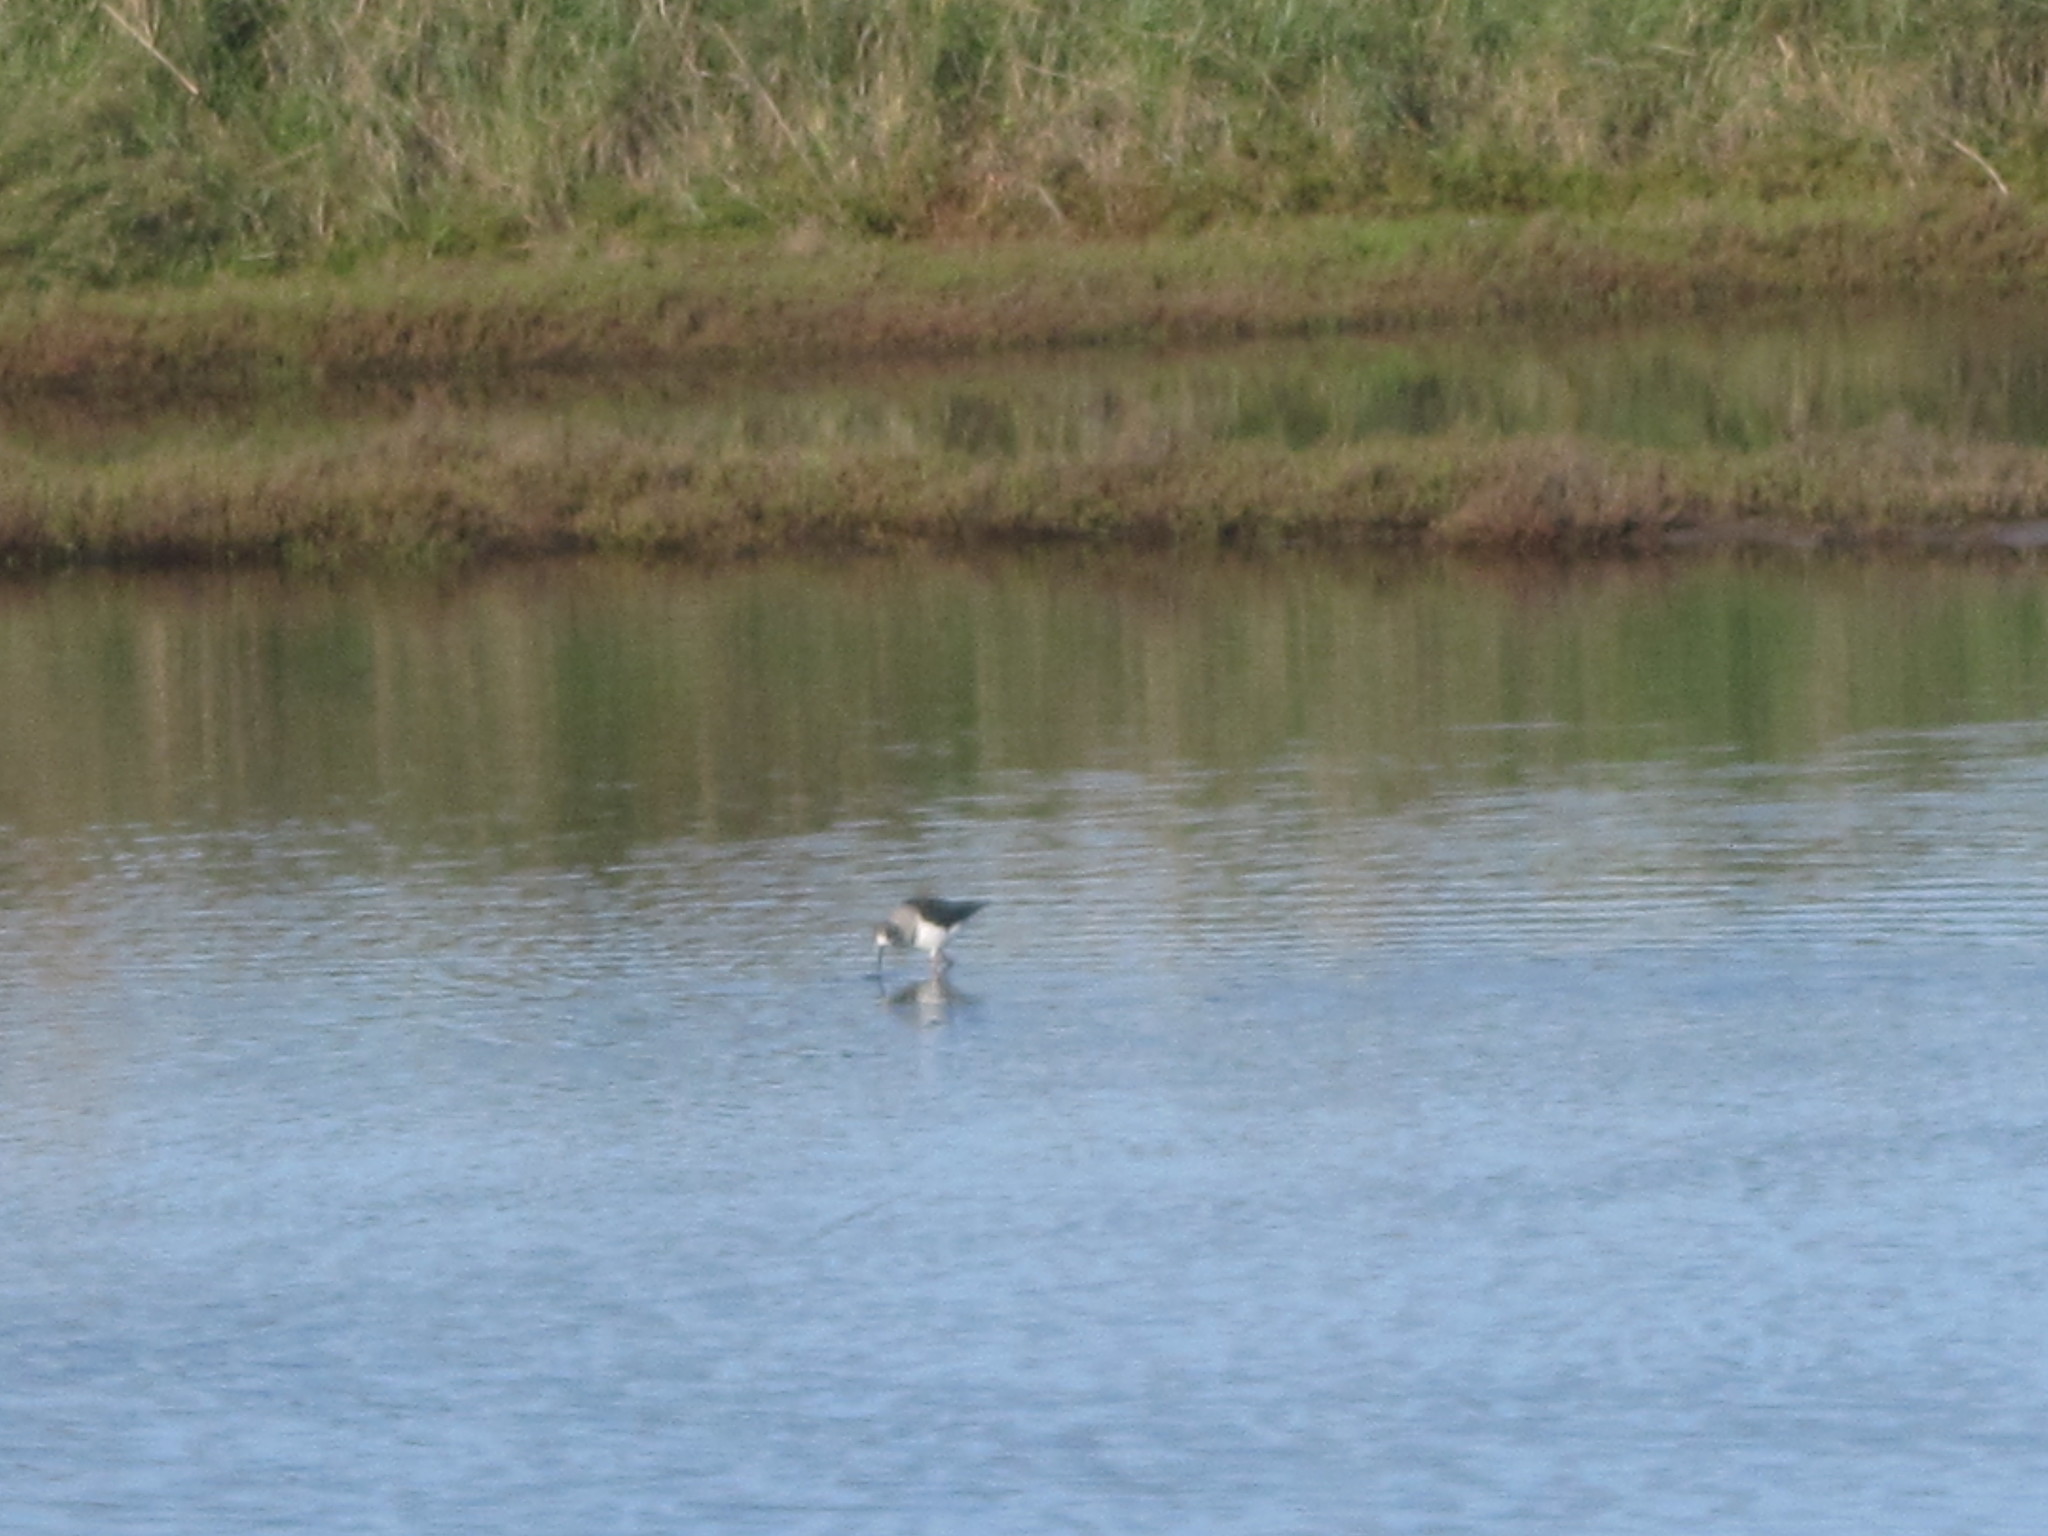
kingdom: Animalia
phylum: Chordata
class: Aves
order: Charadriiformes
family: Recurvirostridae
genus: Himantopus
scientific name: Himantopus himantopus
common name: Black-winged stilt
